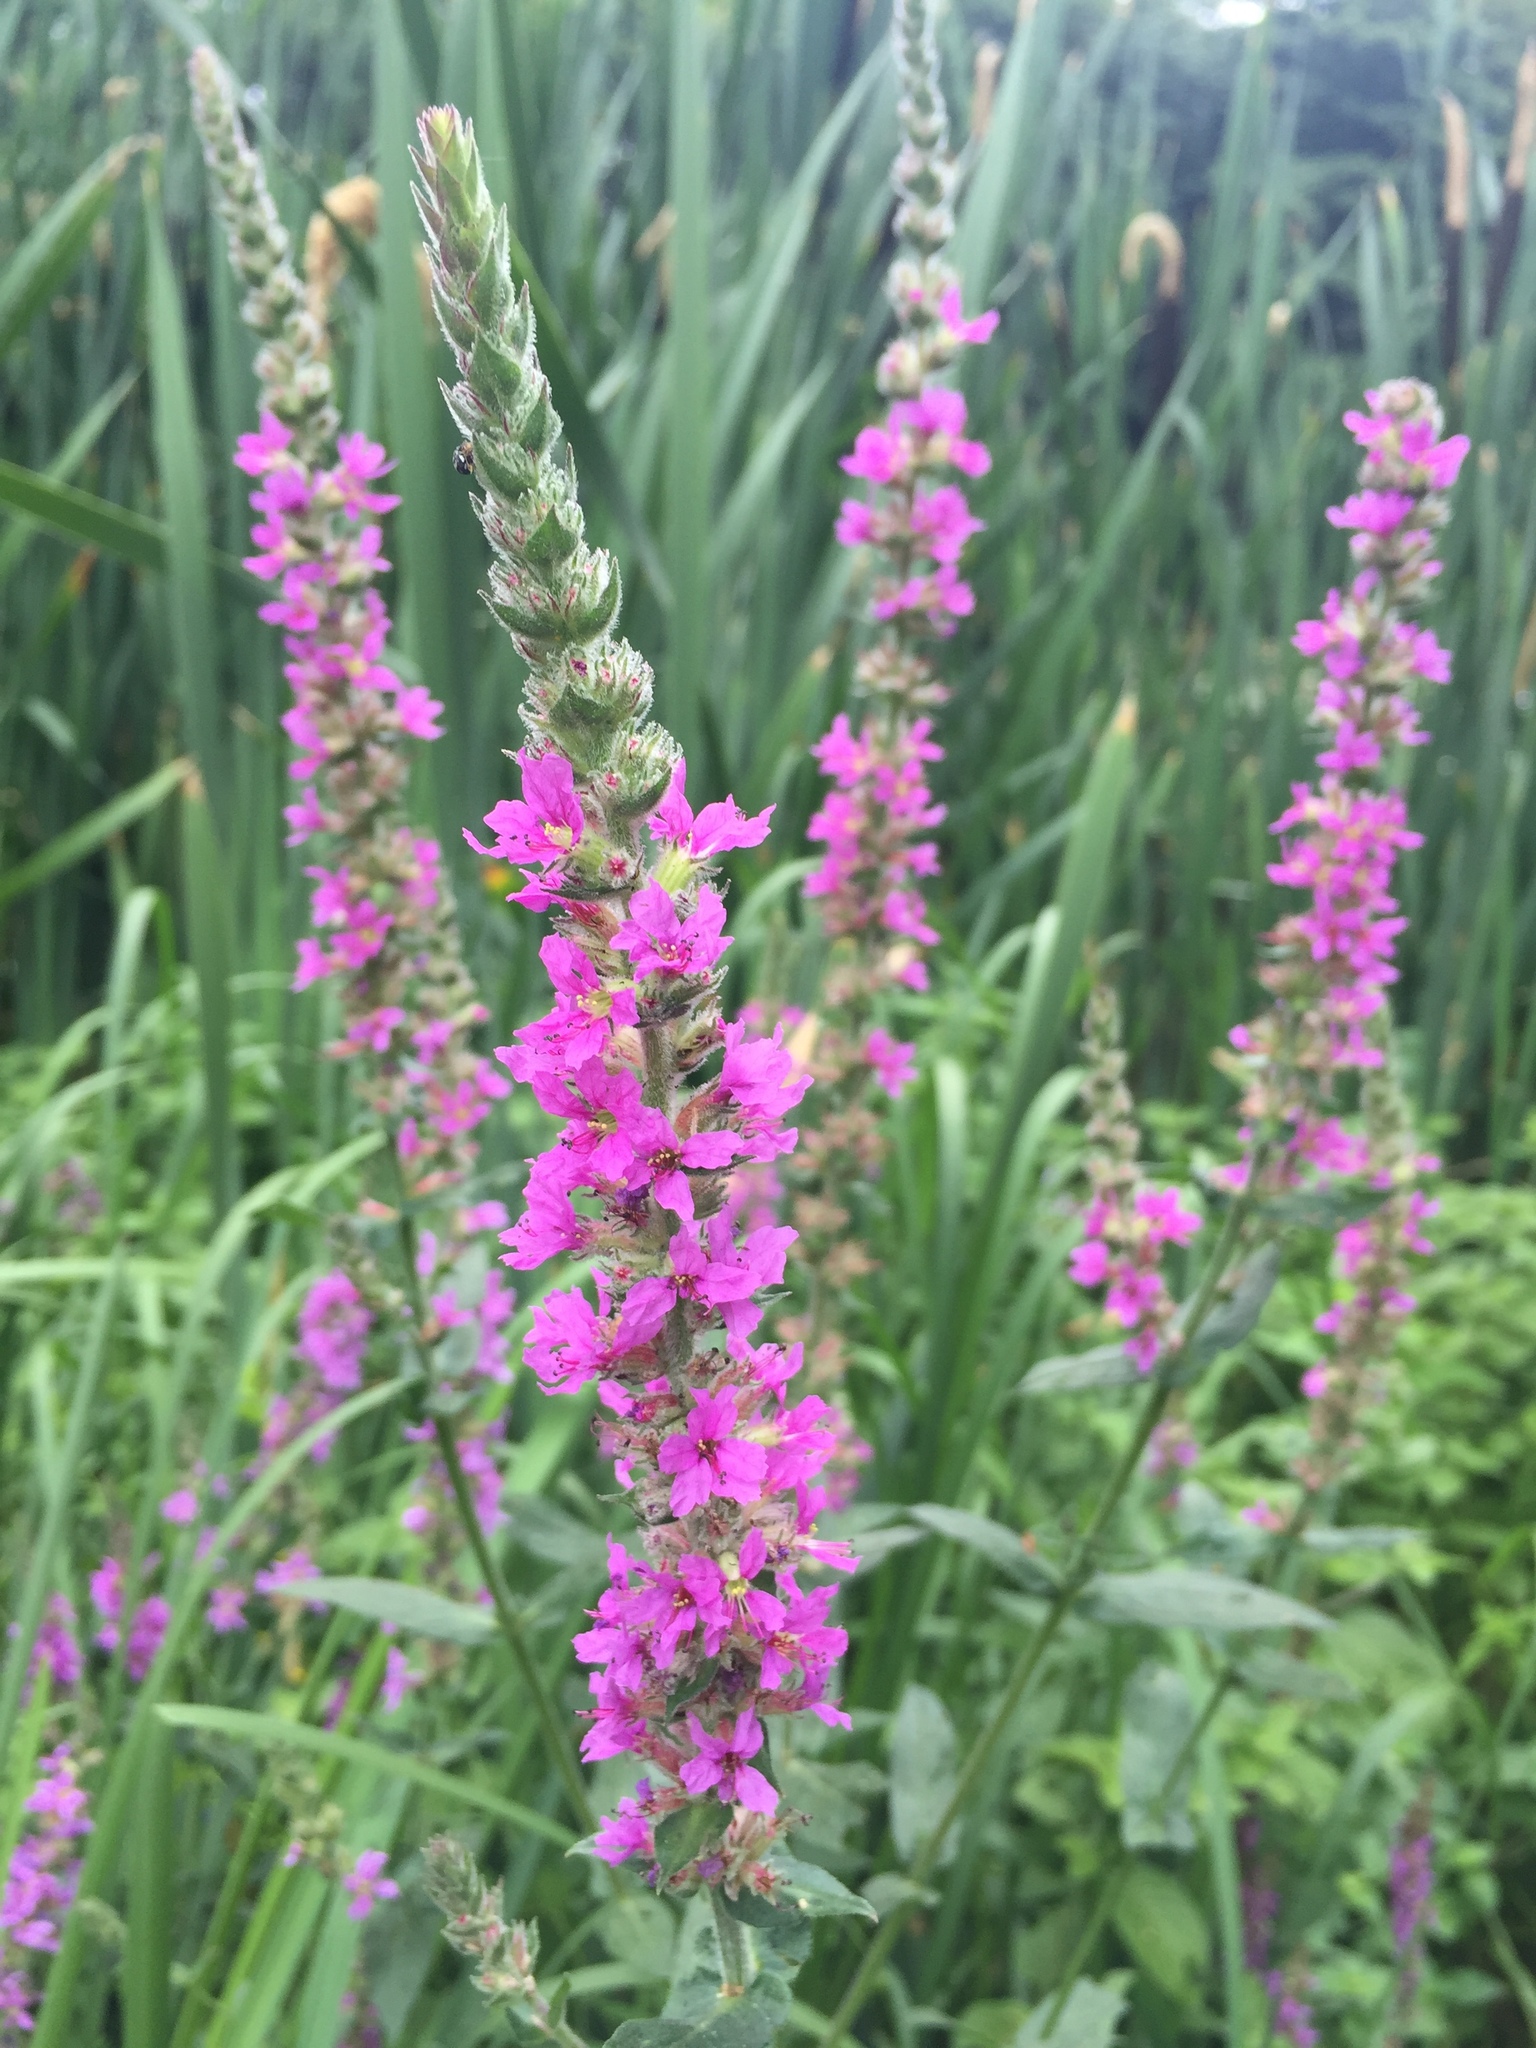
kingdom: Plantae
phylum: Tracheophyta
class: Magnoliopsida
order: Myrtales
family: Lythraceae
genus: Lythrum
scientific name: Lythrum salicaria
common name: Purple loosestrife
